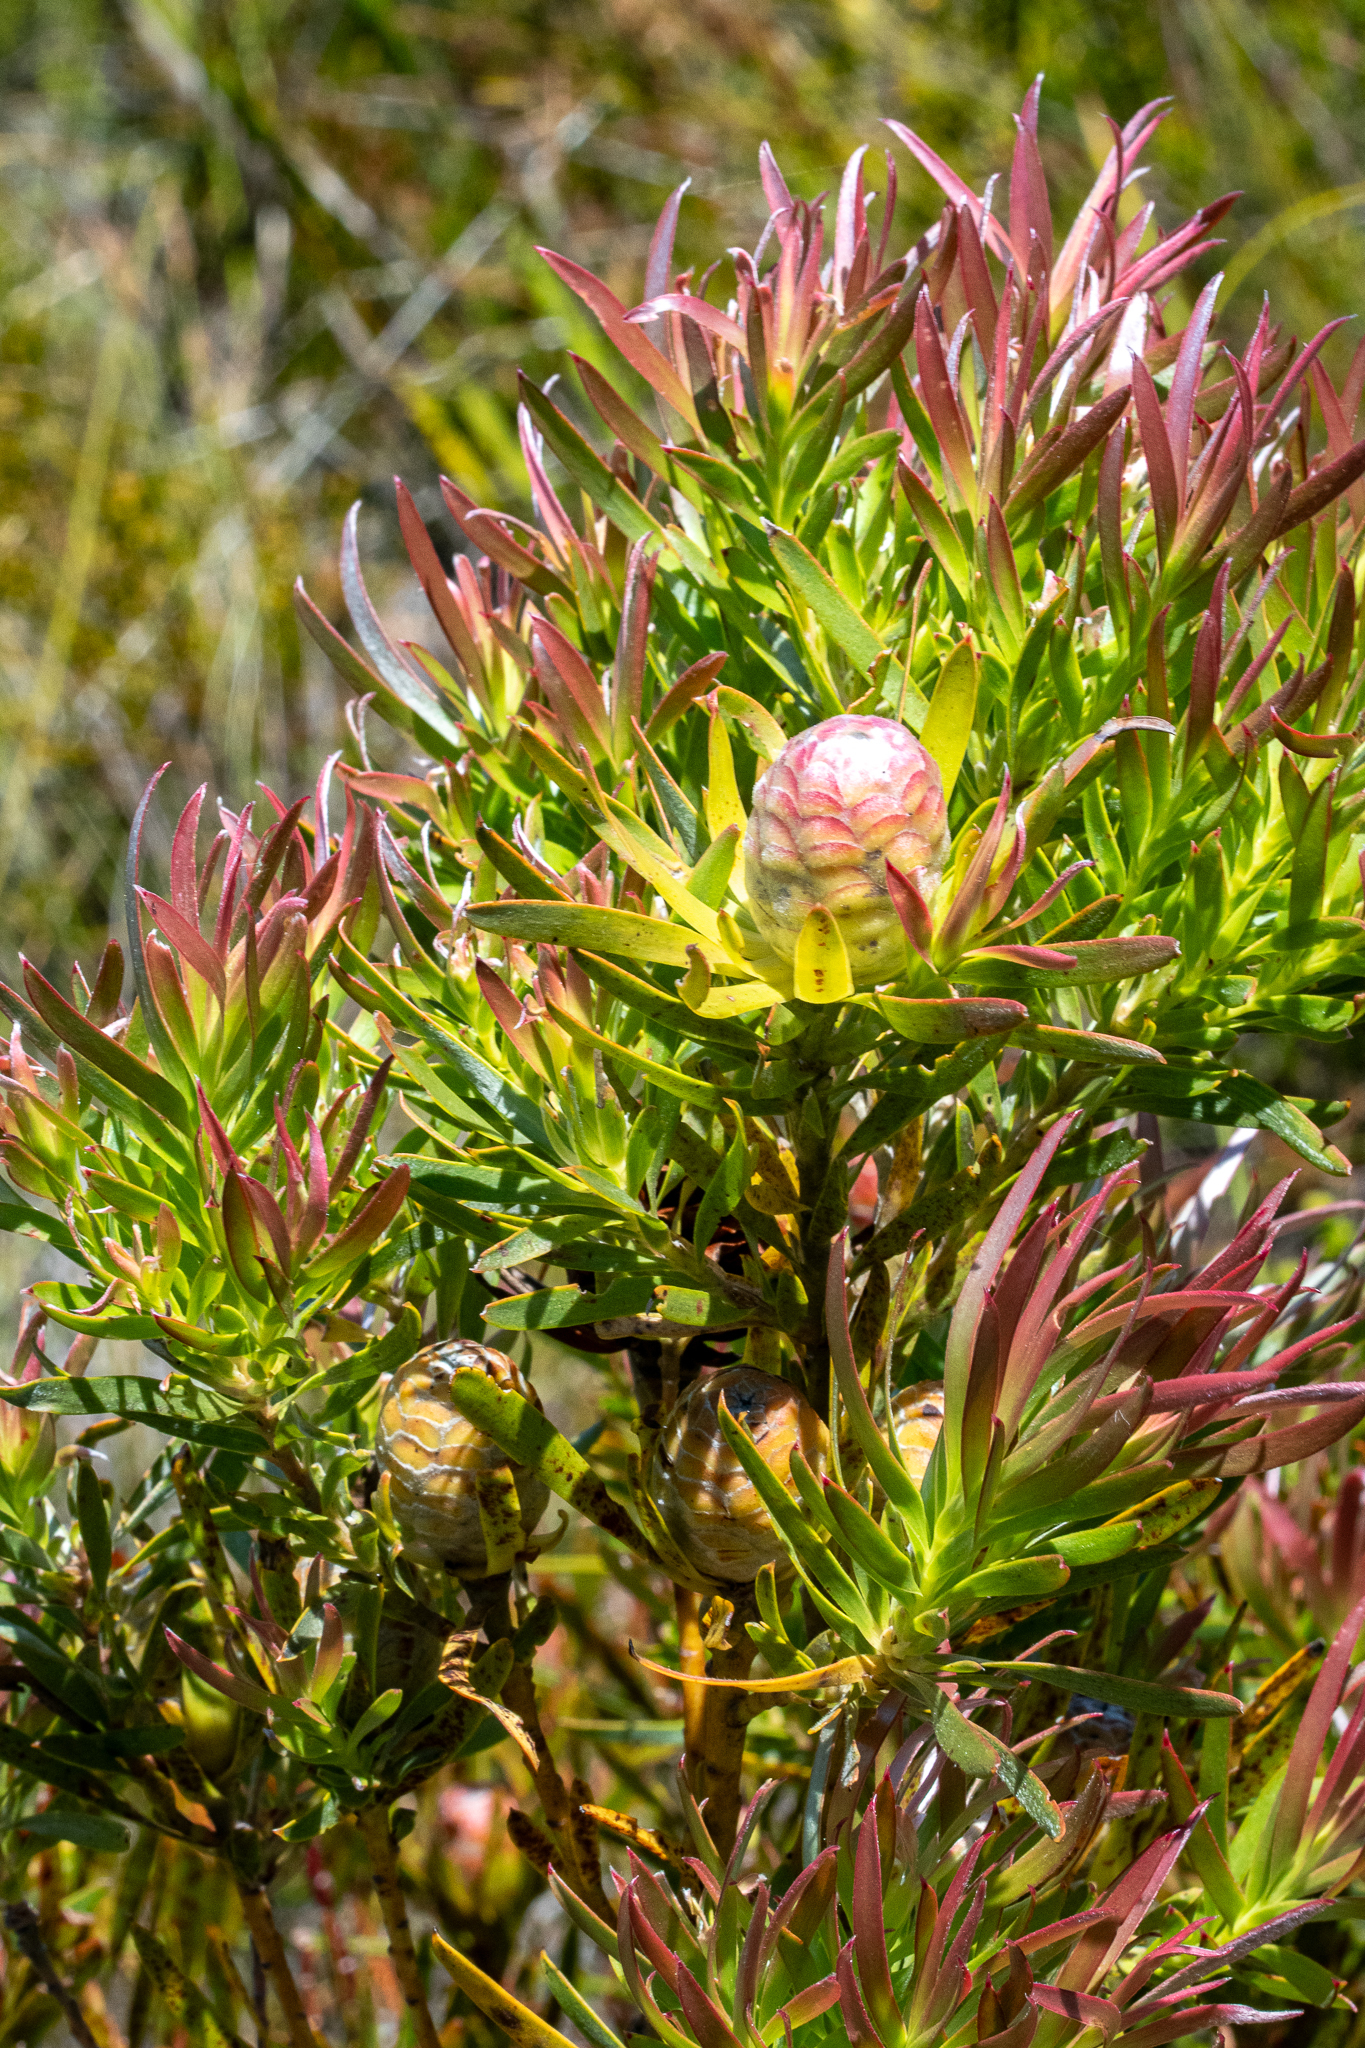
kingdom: Plantae
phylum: Tracheophyta
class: Magnoliopsida
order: Proteales
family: Proteaceae
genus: Leucadendron
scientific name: Leucadendron xanthoconus
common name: Sickle-leaf conebush
